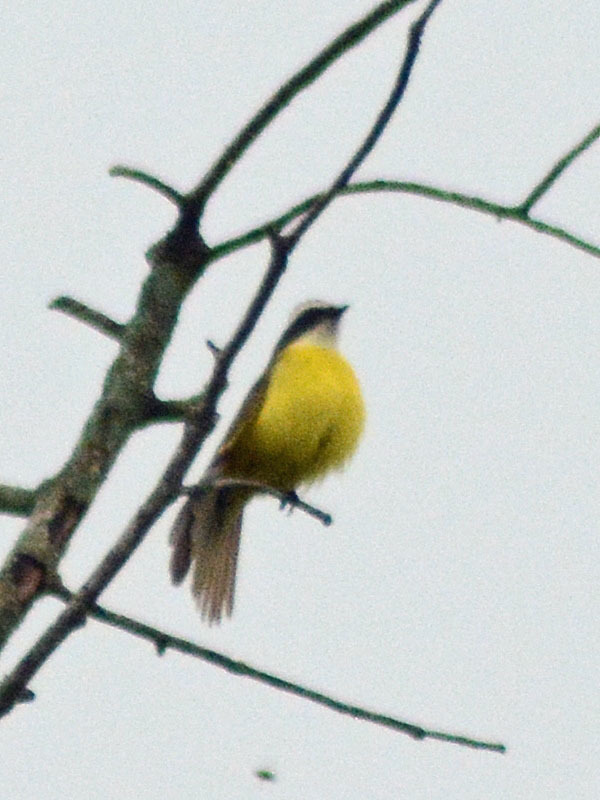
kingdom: Animalia
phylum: Chordata
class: Aves
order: Passeriformes
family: Tyrannidae
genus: Myiozetetes
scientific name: Myiozetetes similis
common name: Social flycatcher
